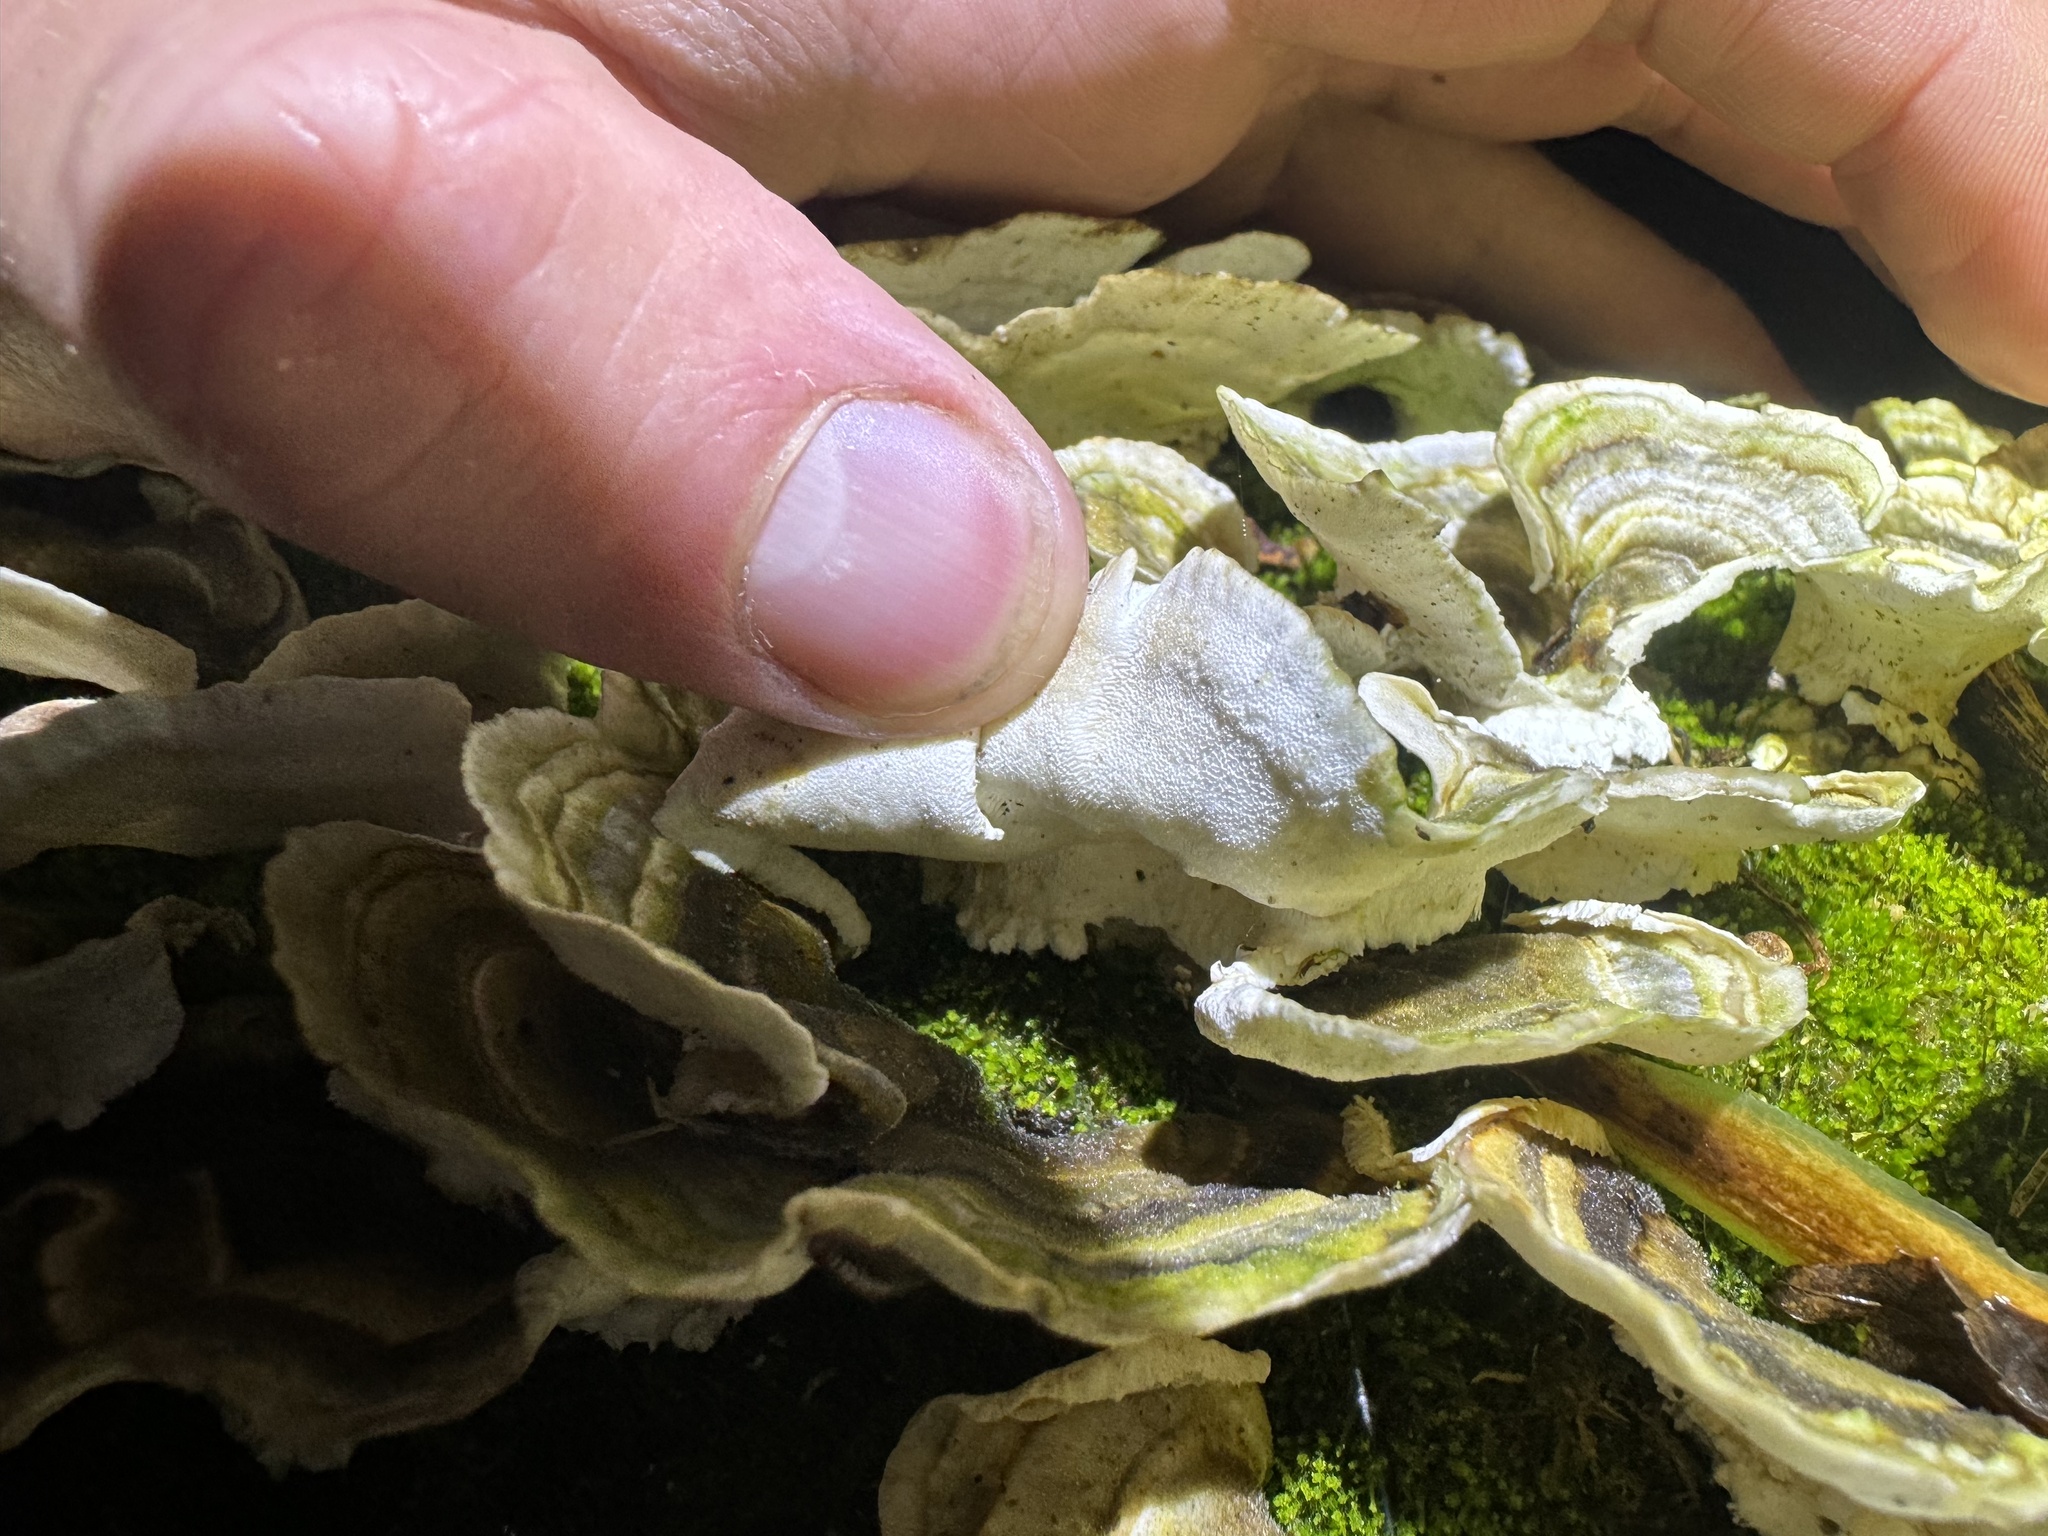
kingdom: Fungi
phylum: Basidiomycota
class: Agaricomycetes
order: Polyporales
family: Polyporaceae
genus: Trametes
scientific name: Trametes versicolor
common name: Turkeytail
